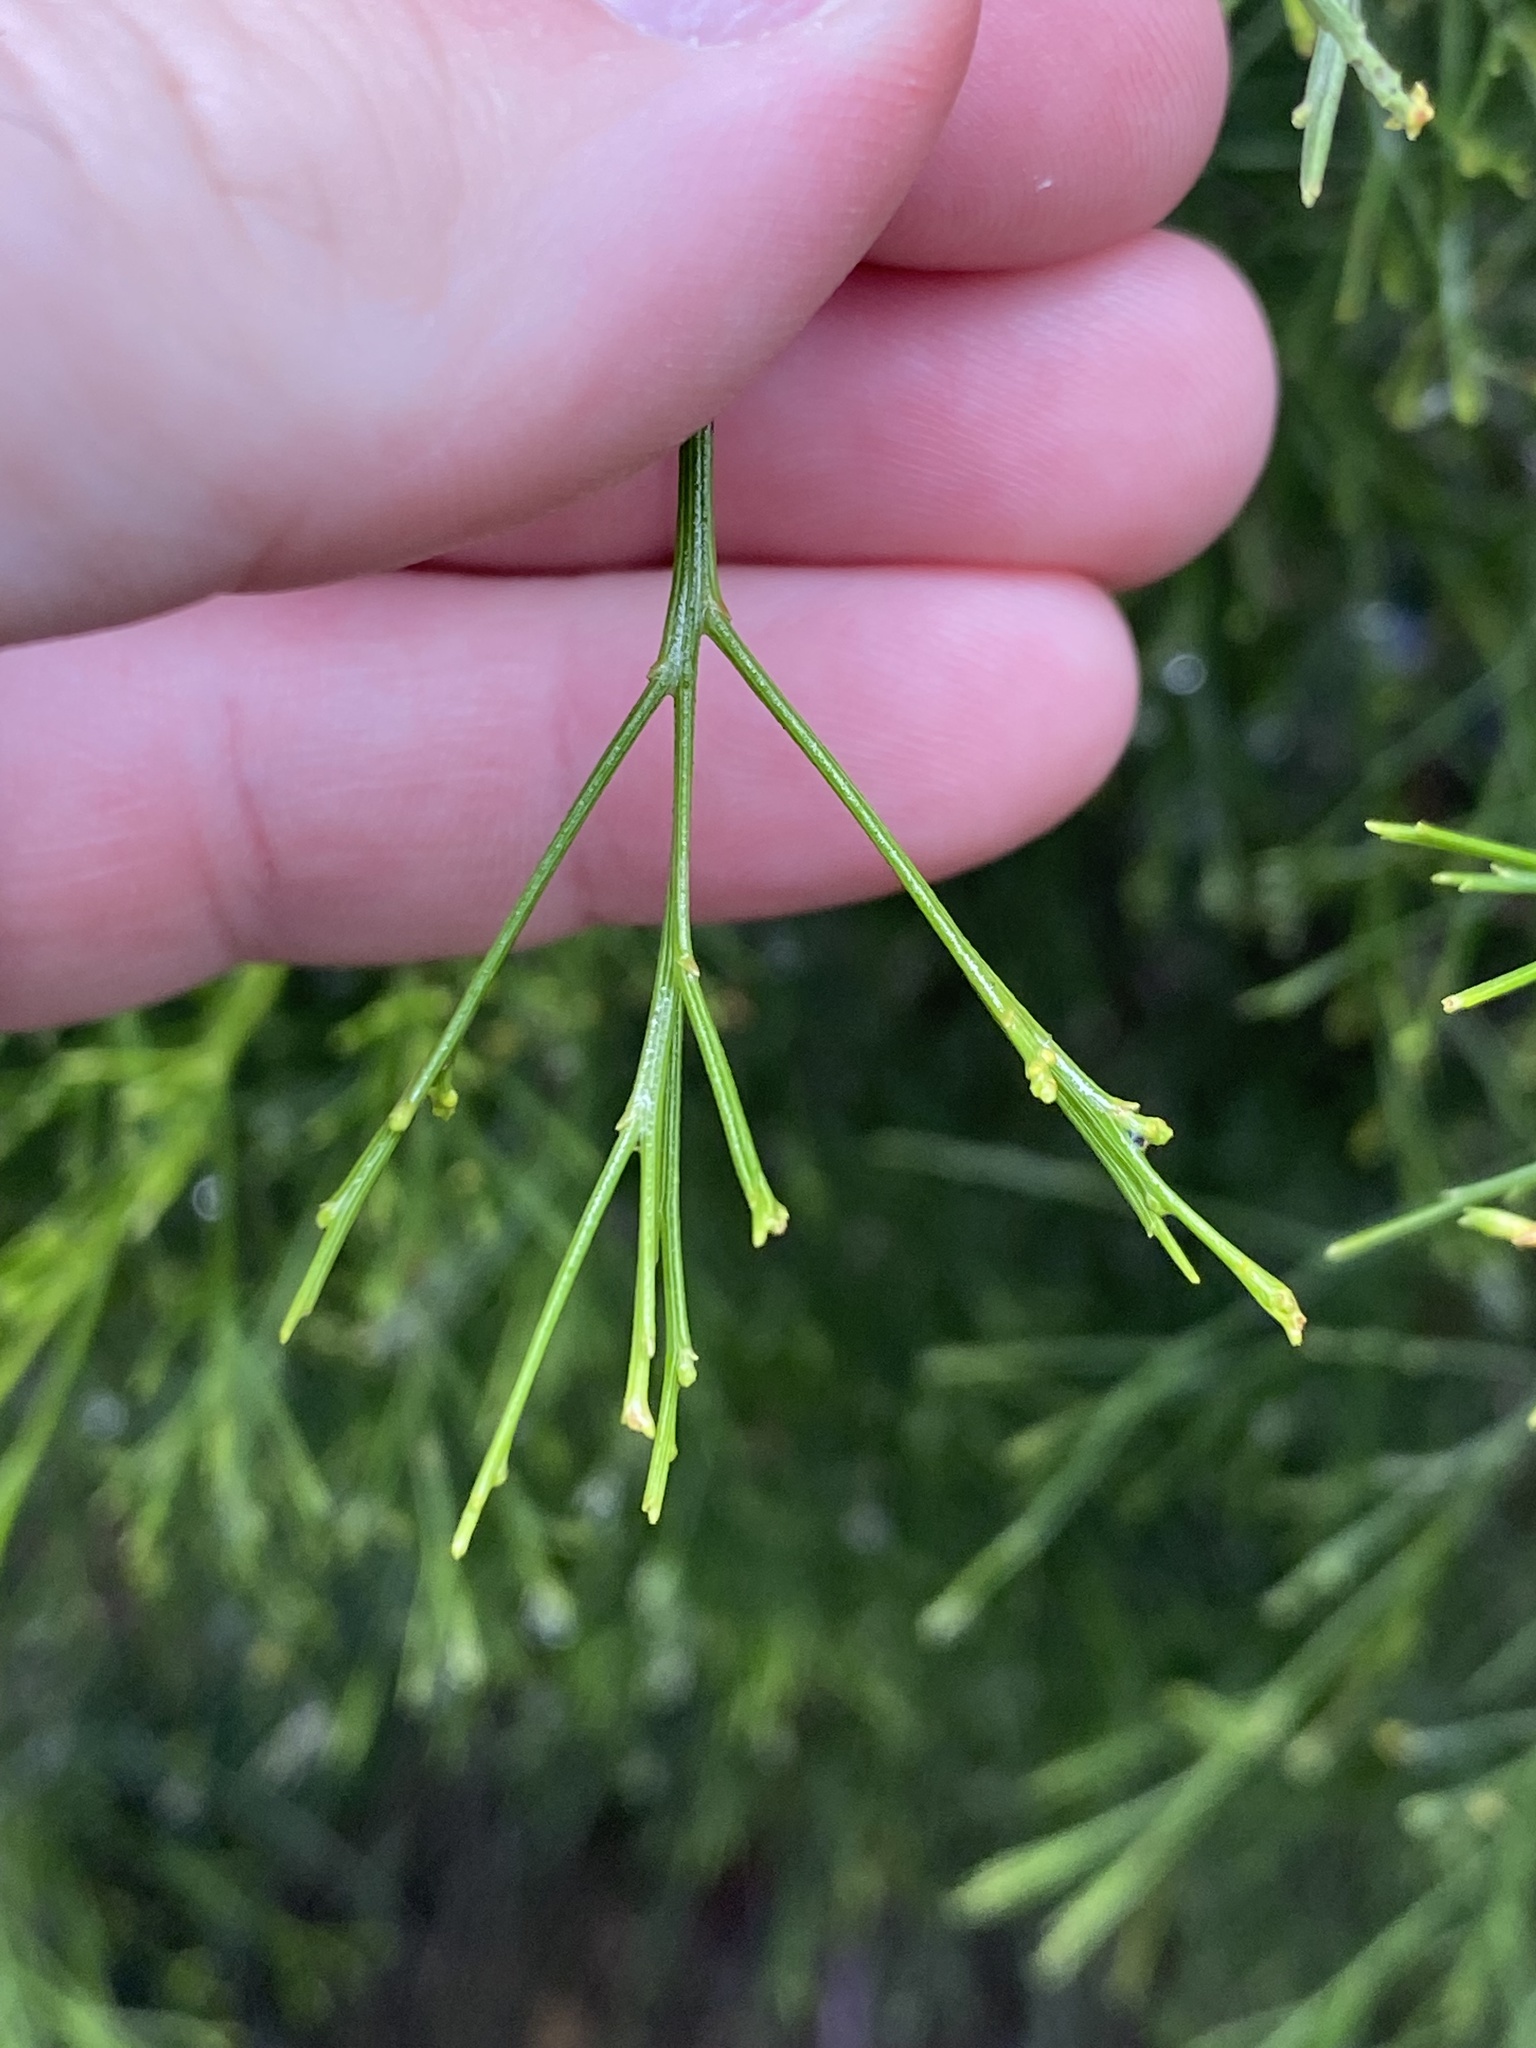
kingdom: Plantae
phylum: Tracheophyta
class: Magnoliopsida
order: Santalales
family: Santalaceae
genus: Exocarpos
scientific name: Exocarpos cupressiformis
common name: Cherry ballart
